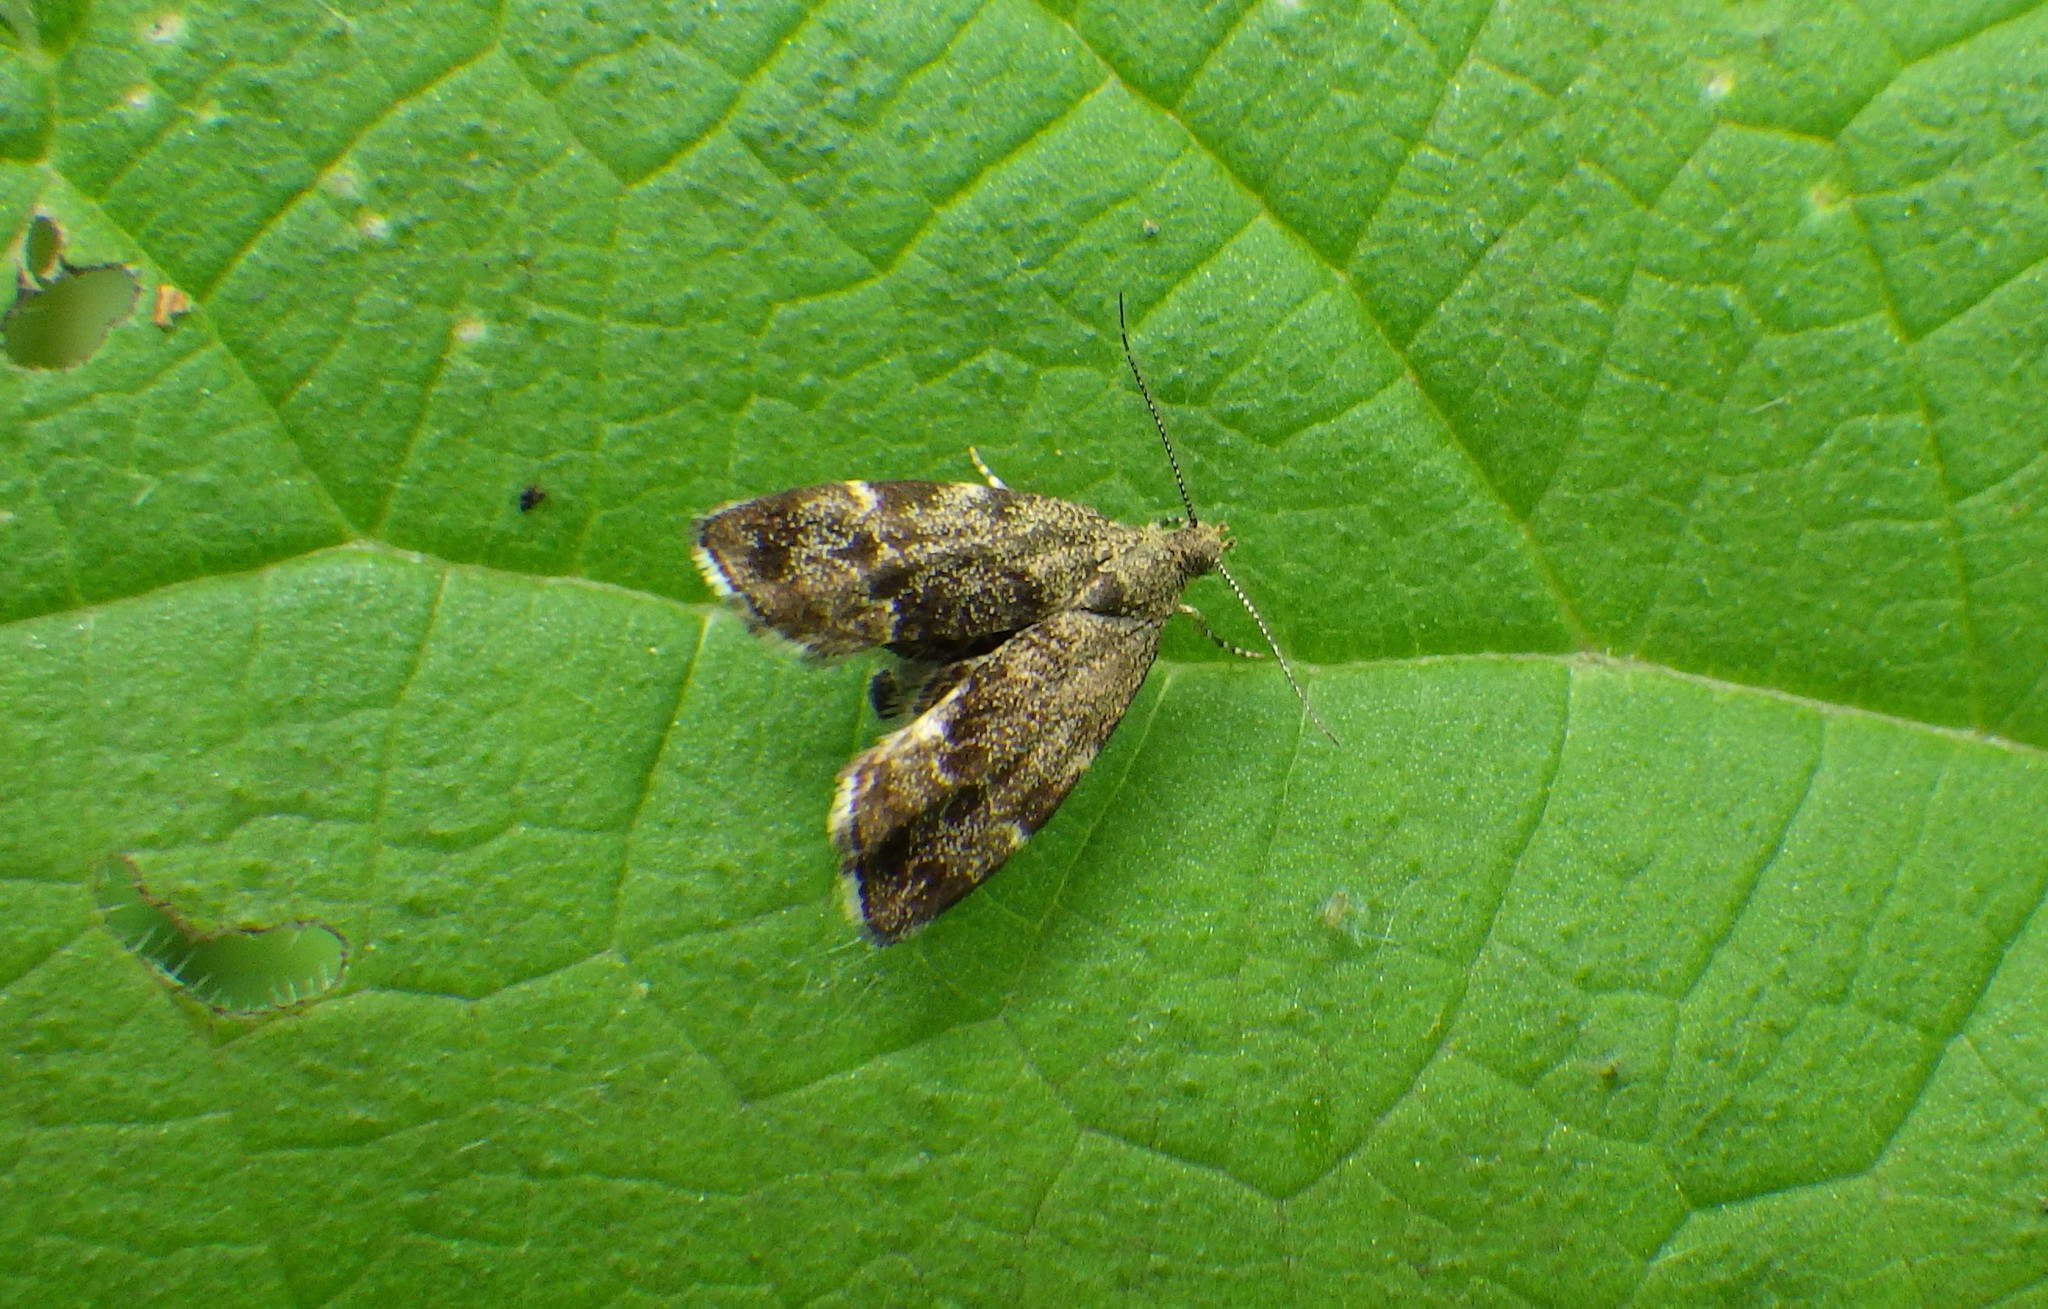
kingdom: Animalia
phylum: Arthropoda
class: Insecta
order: Lepidoptera
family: Choreutidae
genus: Anthophila
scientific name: Anthophila fabriciana
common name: Nettle-tap
